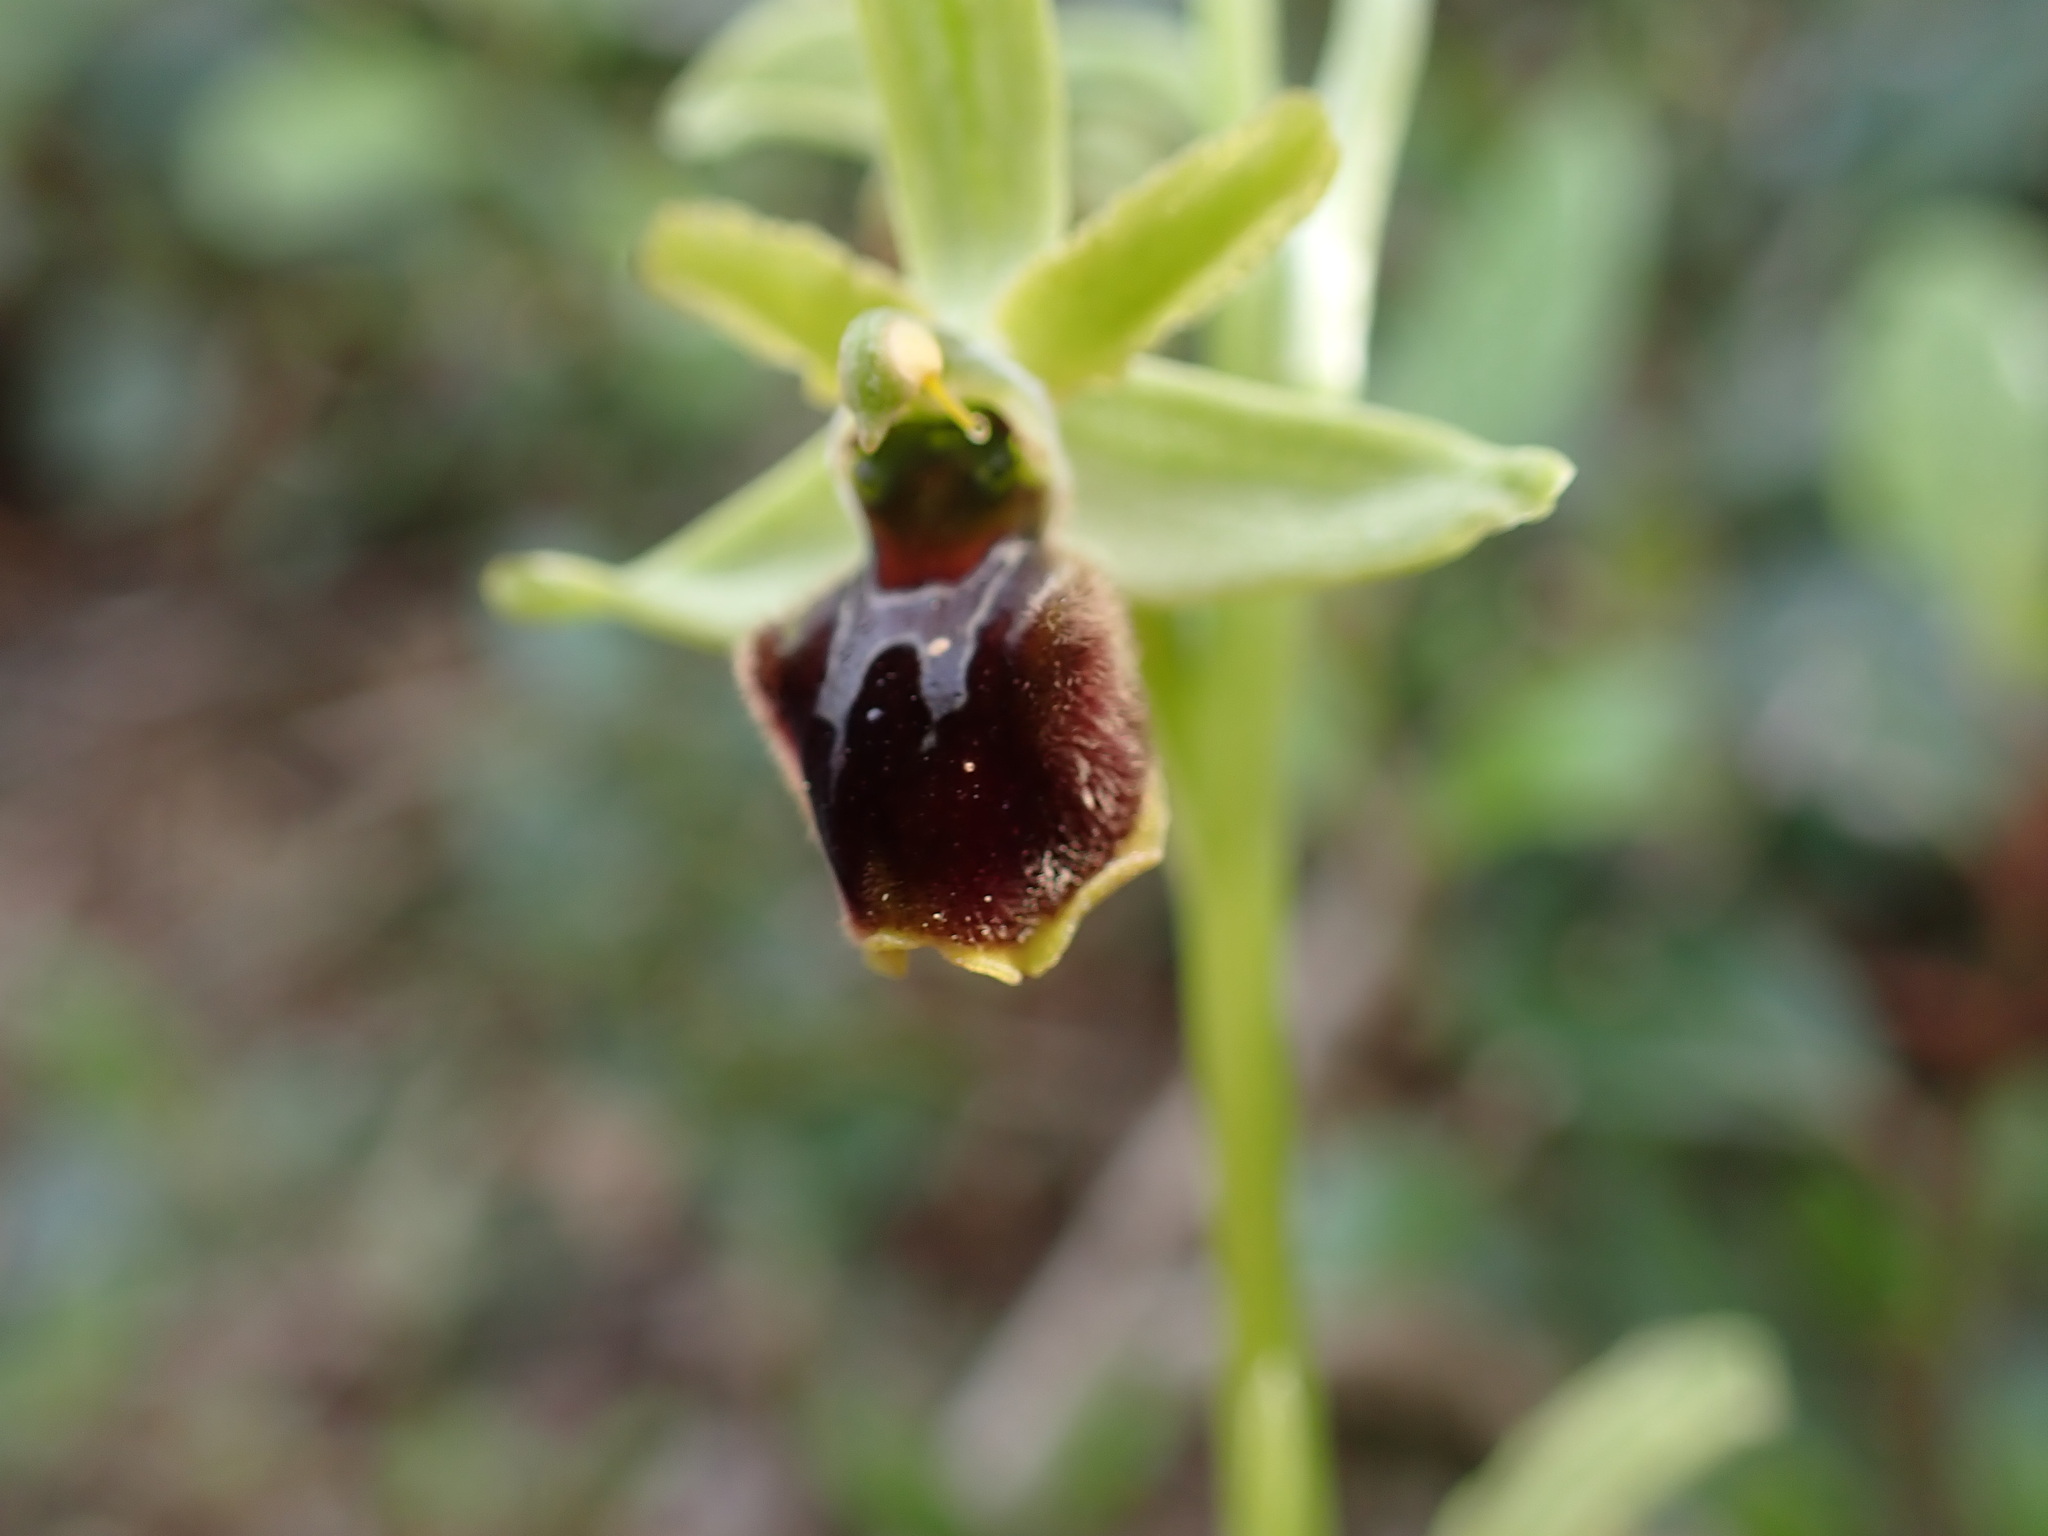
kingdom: Plantae
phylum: Tracheophyta
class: Liliopsida
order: Asparagales
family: Orchidaceae
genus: Ophrys
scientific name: Ophrys araneola
